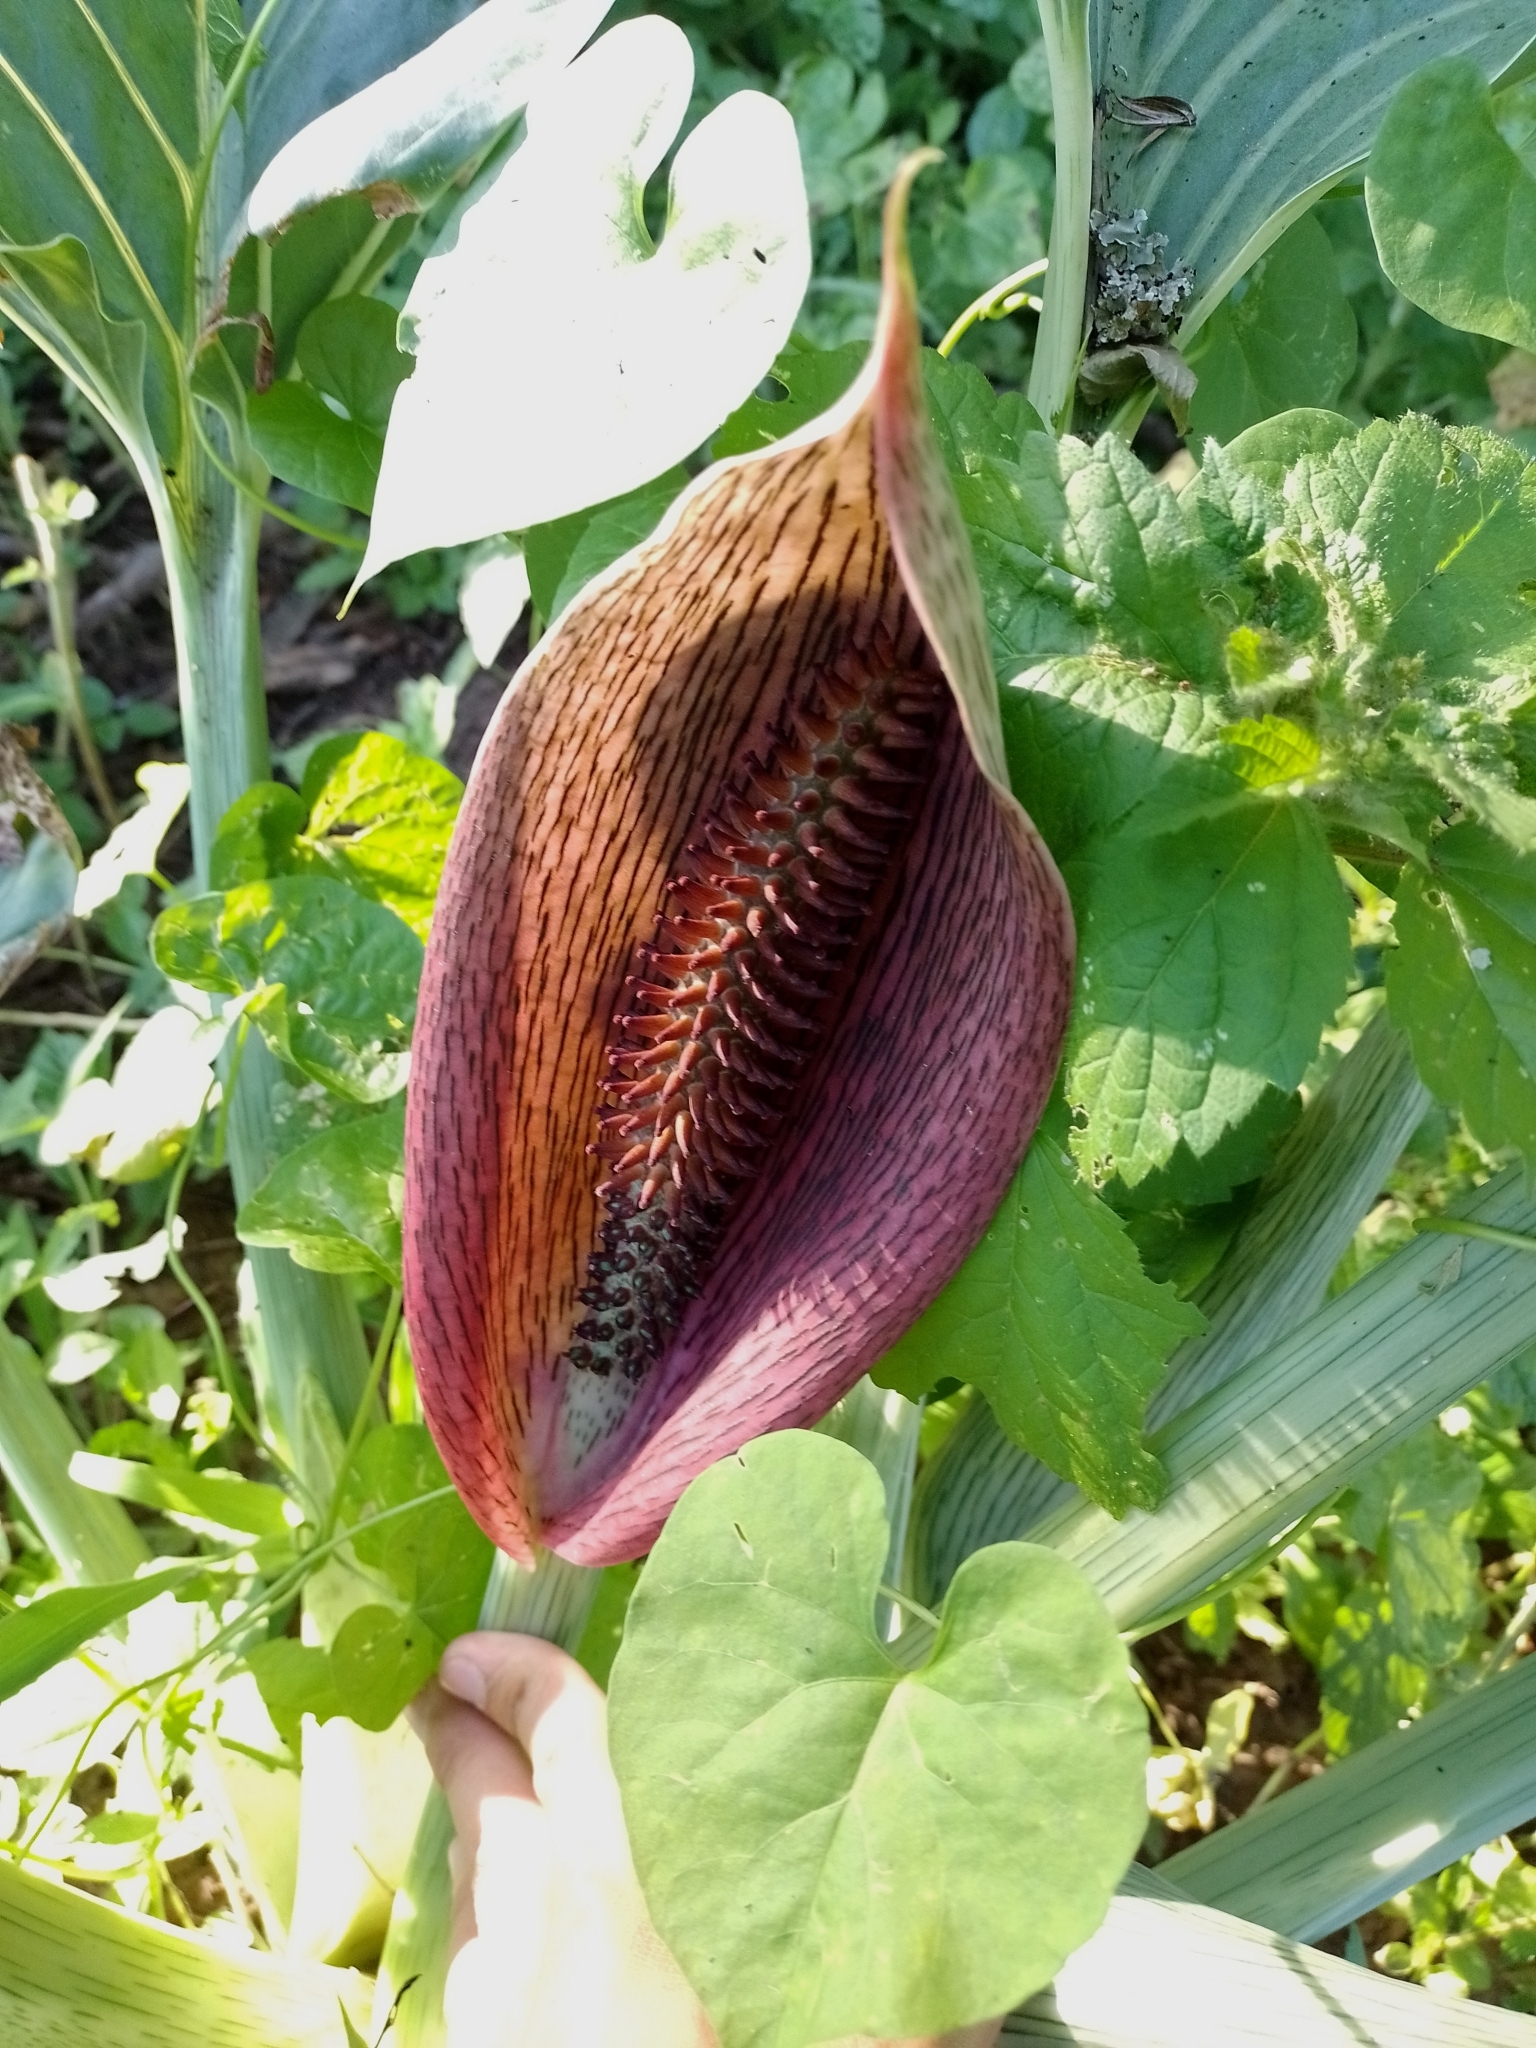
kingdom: Plantae
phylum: Tracheophyta
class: Liliopsida
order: Alismatales
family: Araceae
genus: Synandrospadix
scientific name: Synandrospadix vermitoxicus
